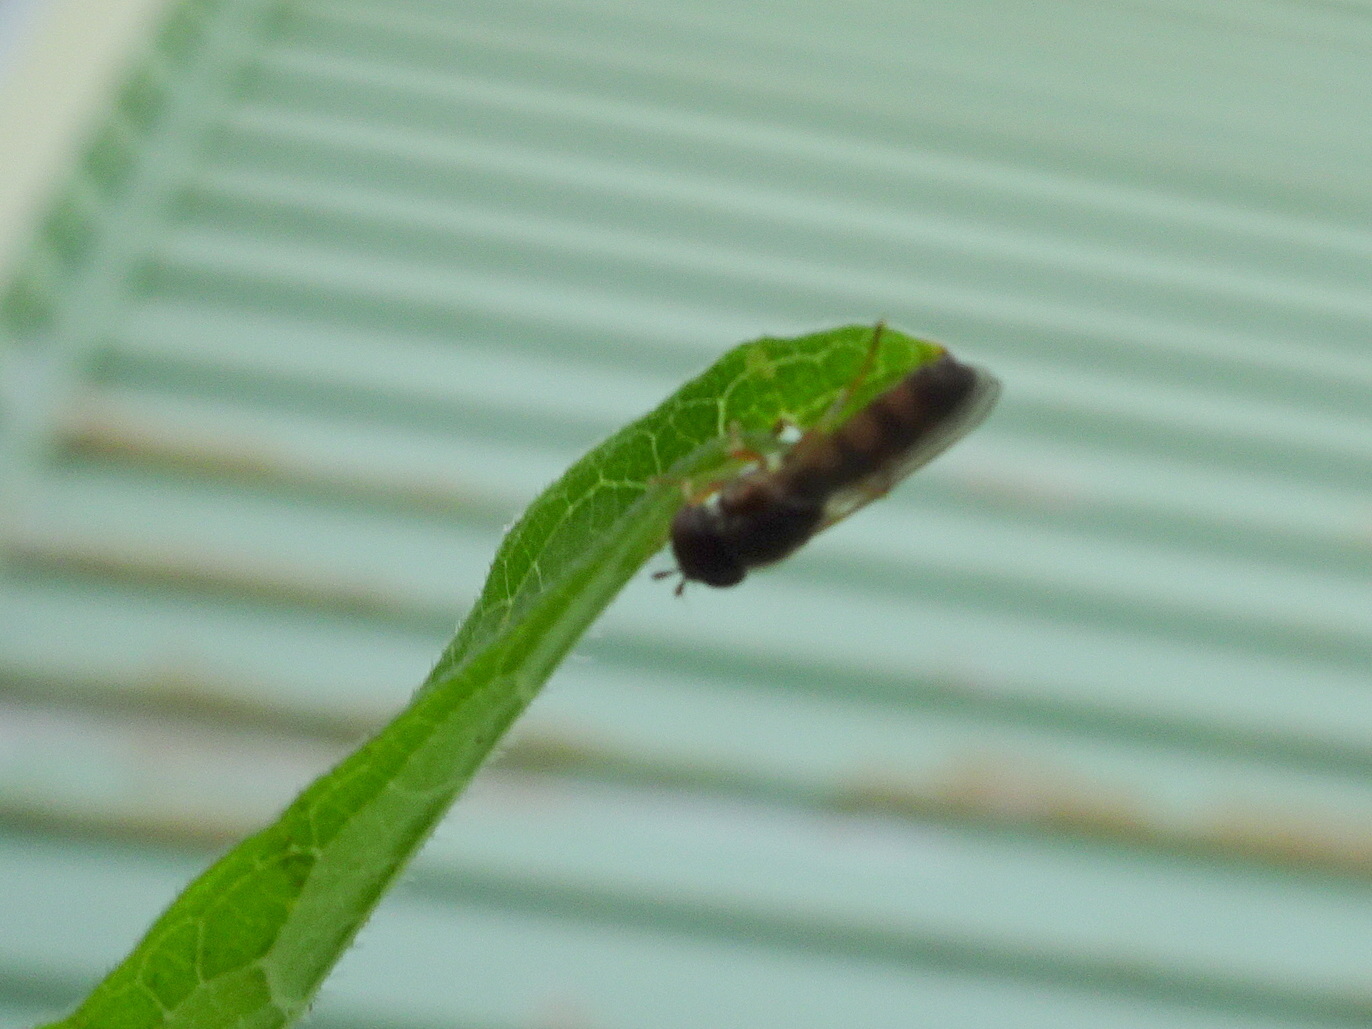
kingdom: Animalia
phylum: Arthropoda
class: Insecta
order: Diptera
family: Syrphidae
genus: Melanostoma
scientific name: Melanostoma mellina
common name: Hover fly
